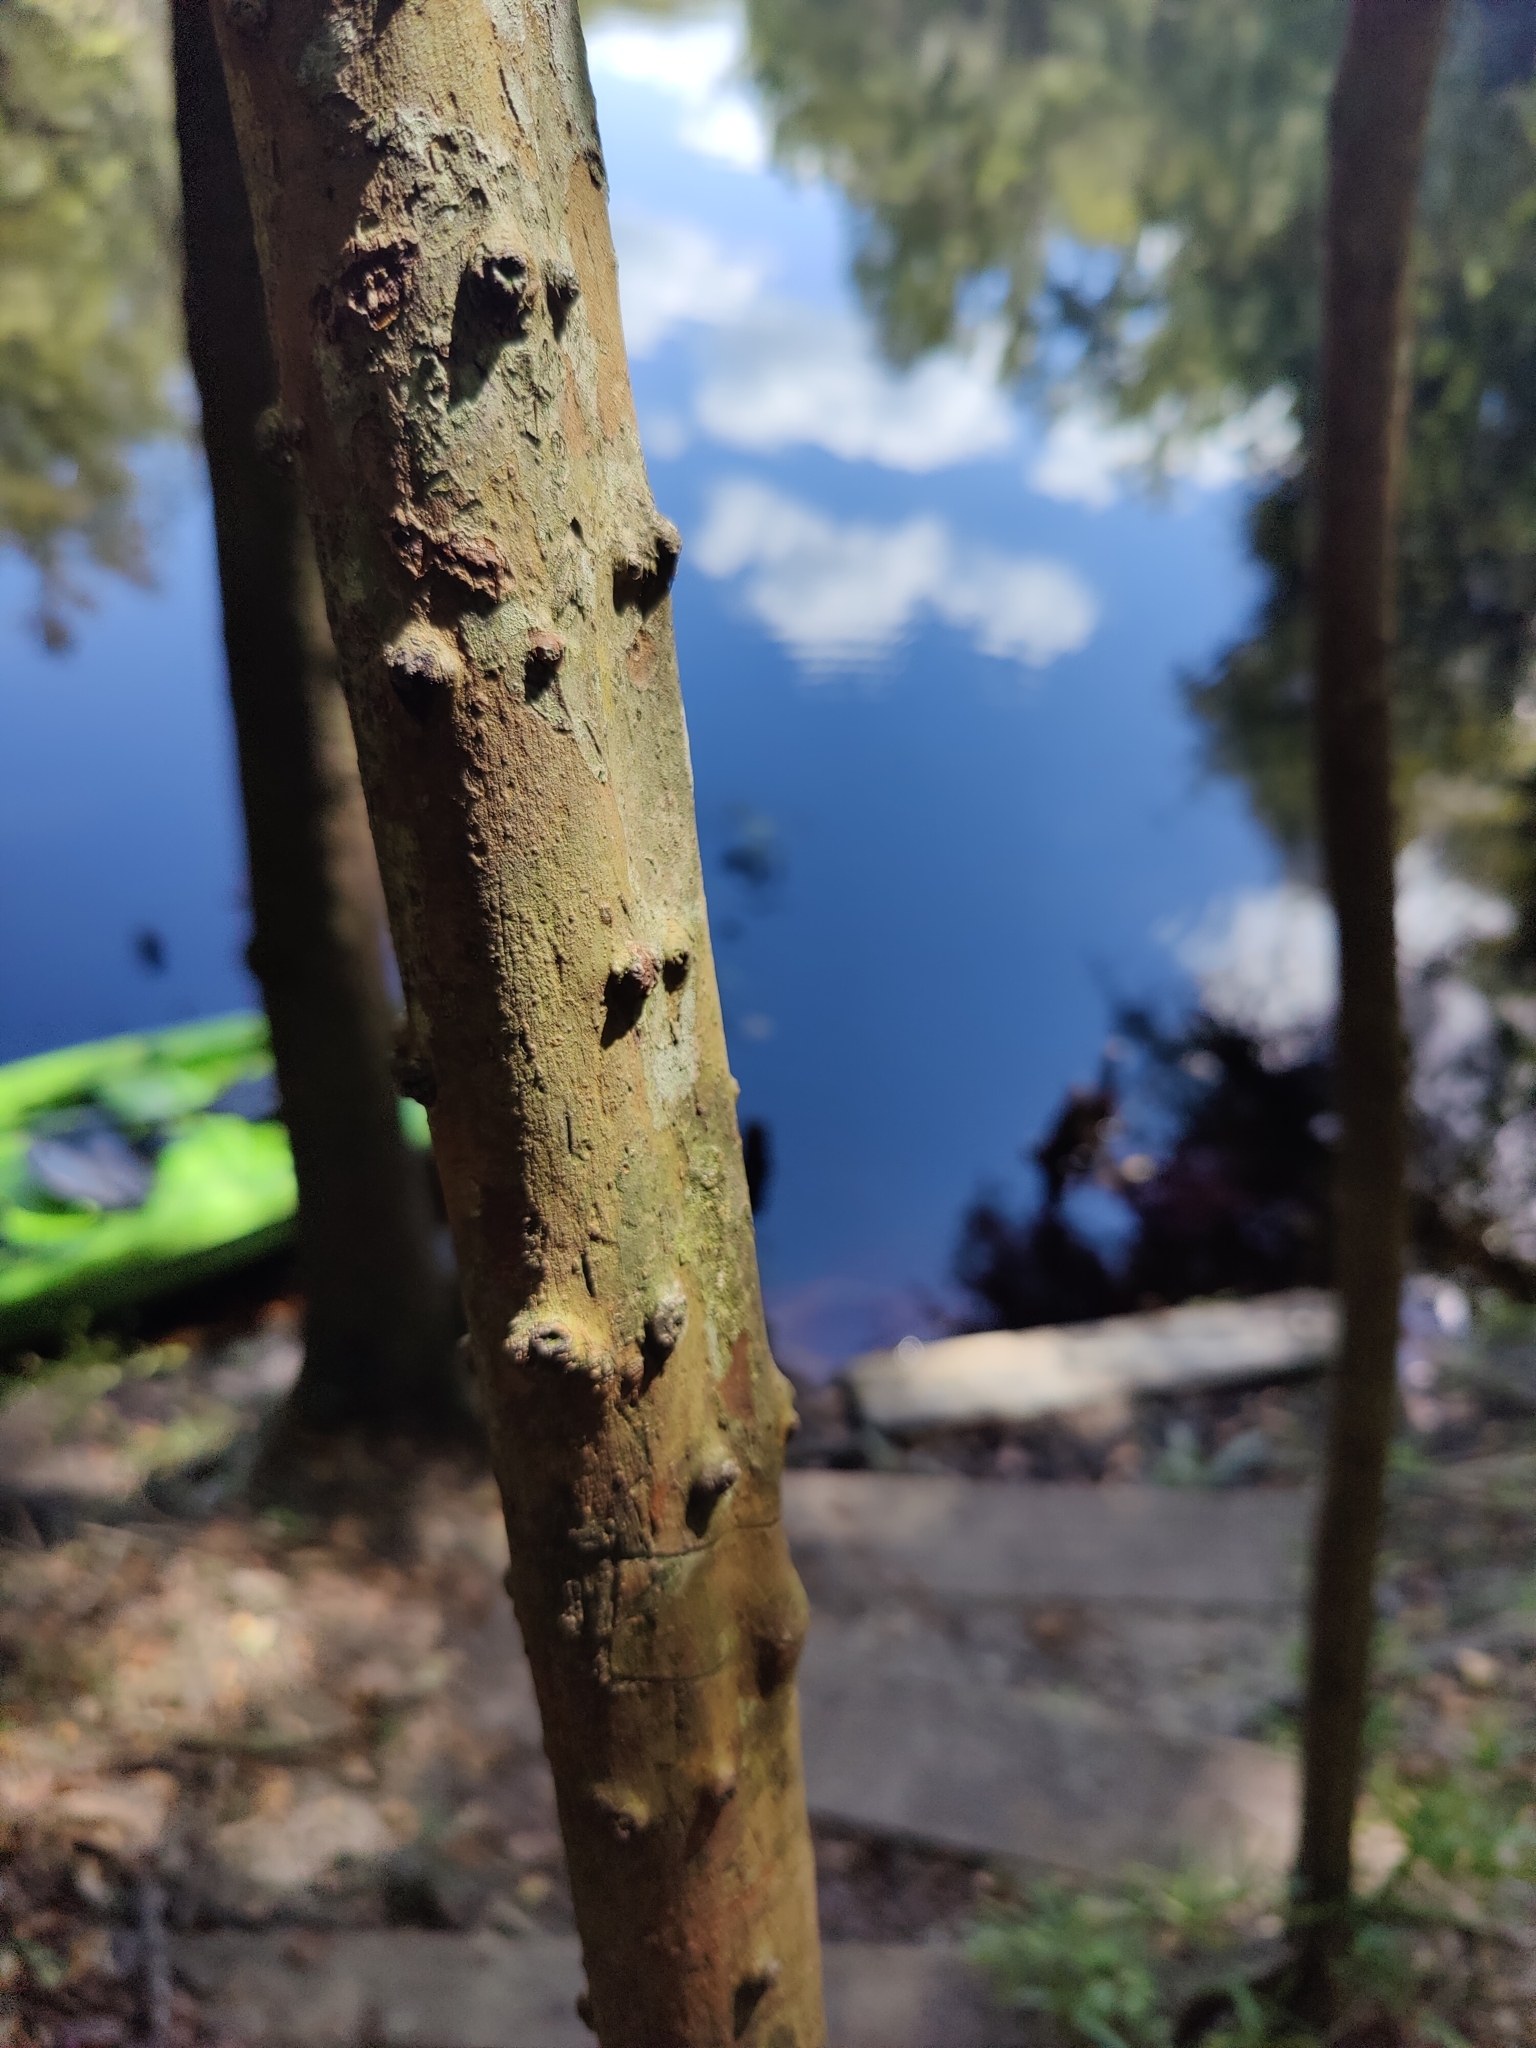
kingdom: Plantae
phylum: Tracheophyta
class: Magnoliopsida
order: Rosales
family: Rosaceae
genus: Crataegus
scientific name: Crataegus marshallii
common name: Parsley-hawthorn
